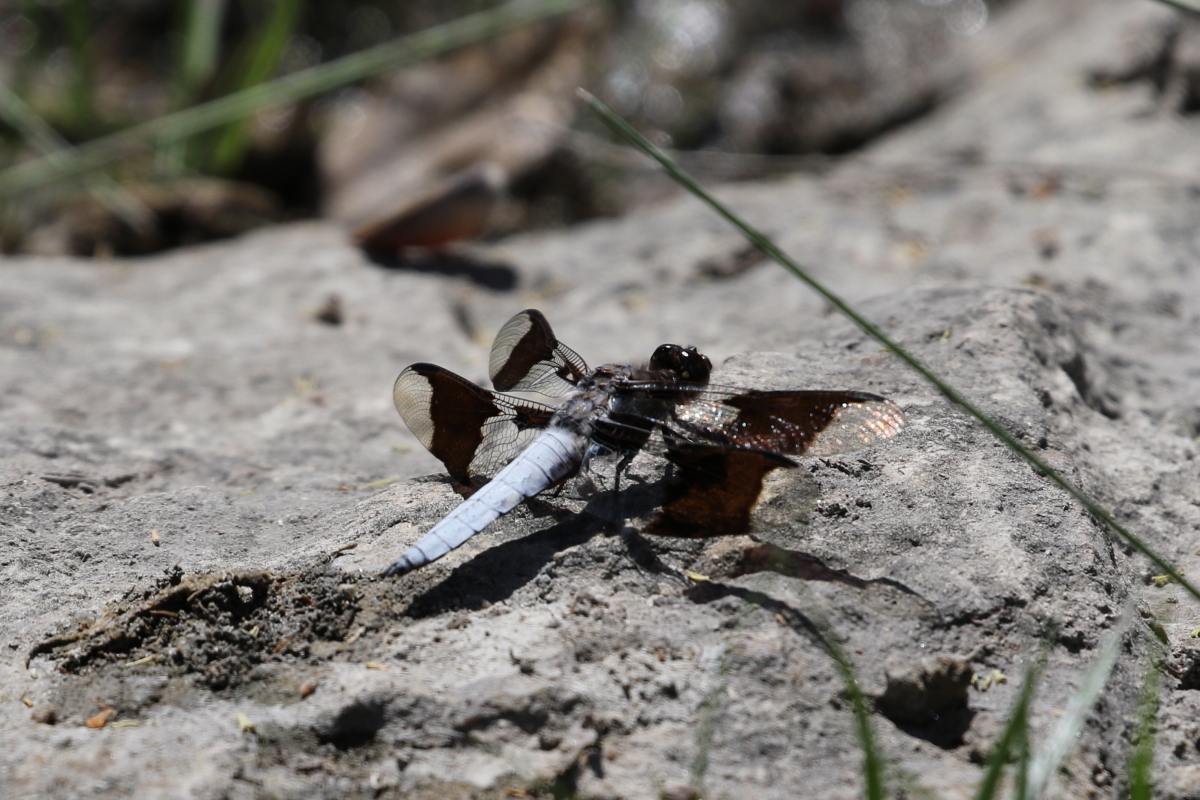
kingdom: Animalia
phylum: Arthropoda
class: Insecta
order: Odonata
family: Libellulidae
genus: Plathemis
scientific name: Plathemis lydia
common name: Common whitetail
